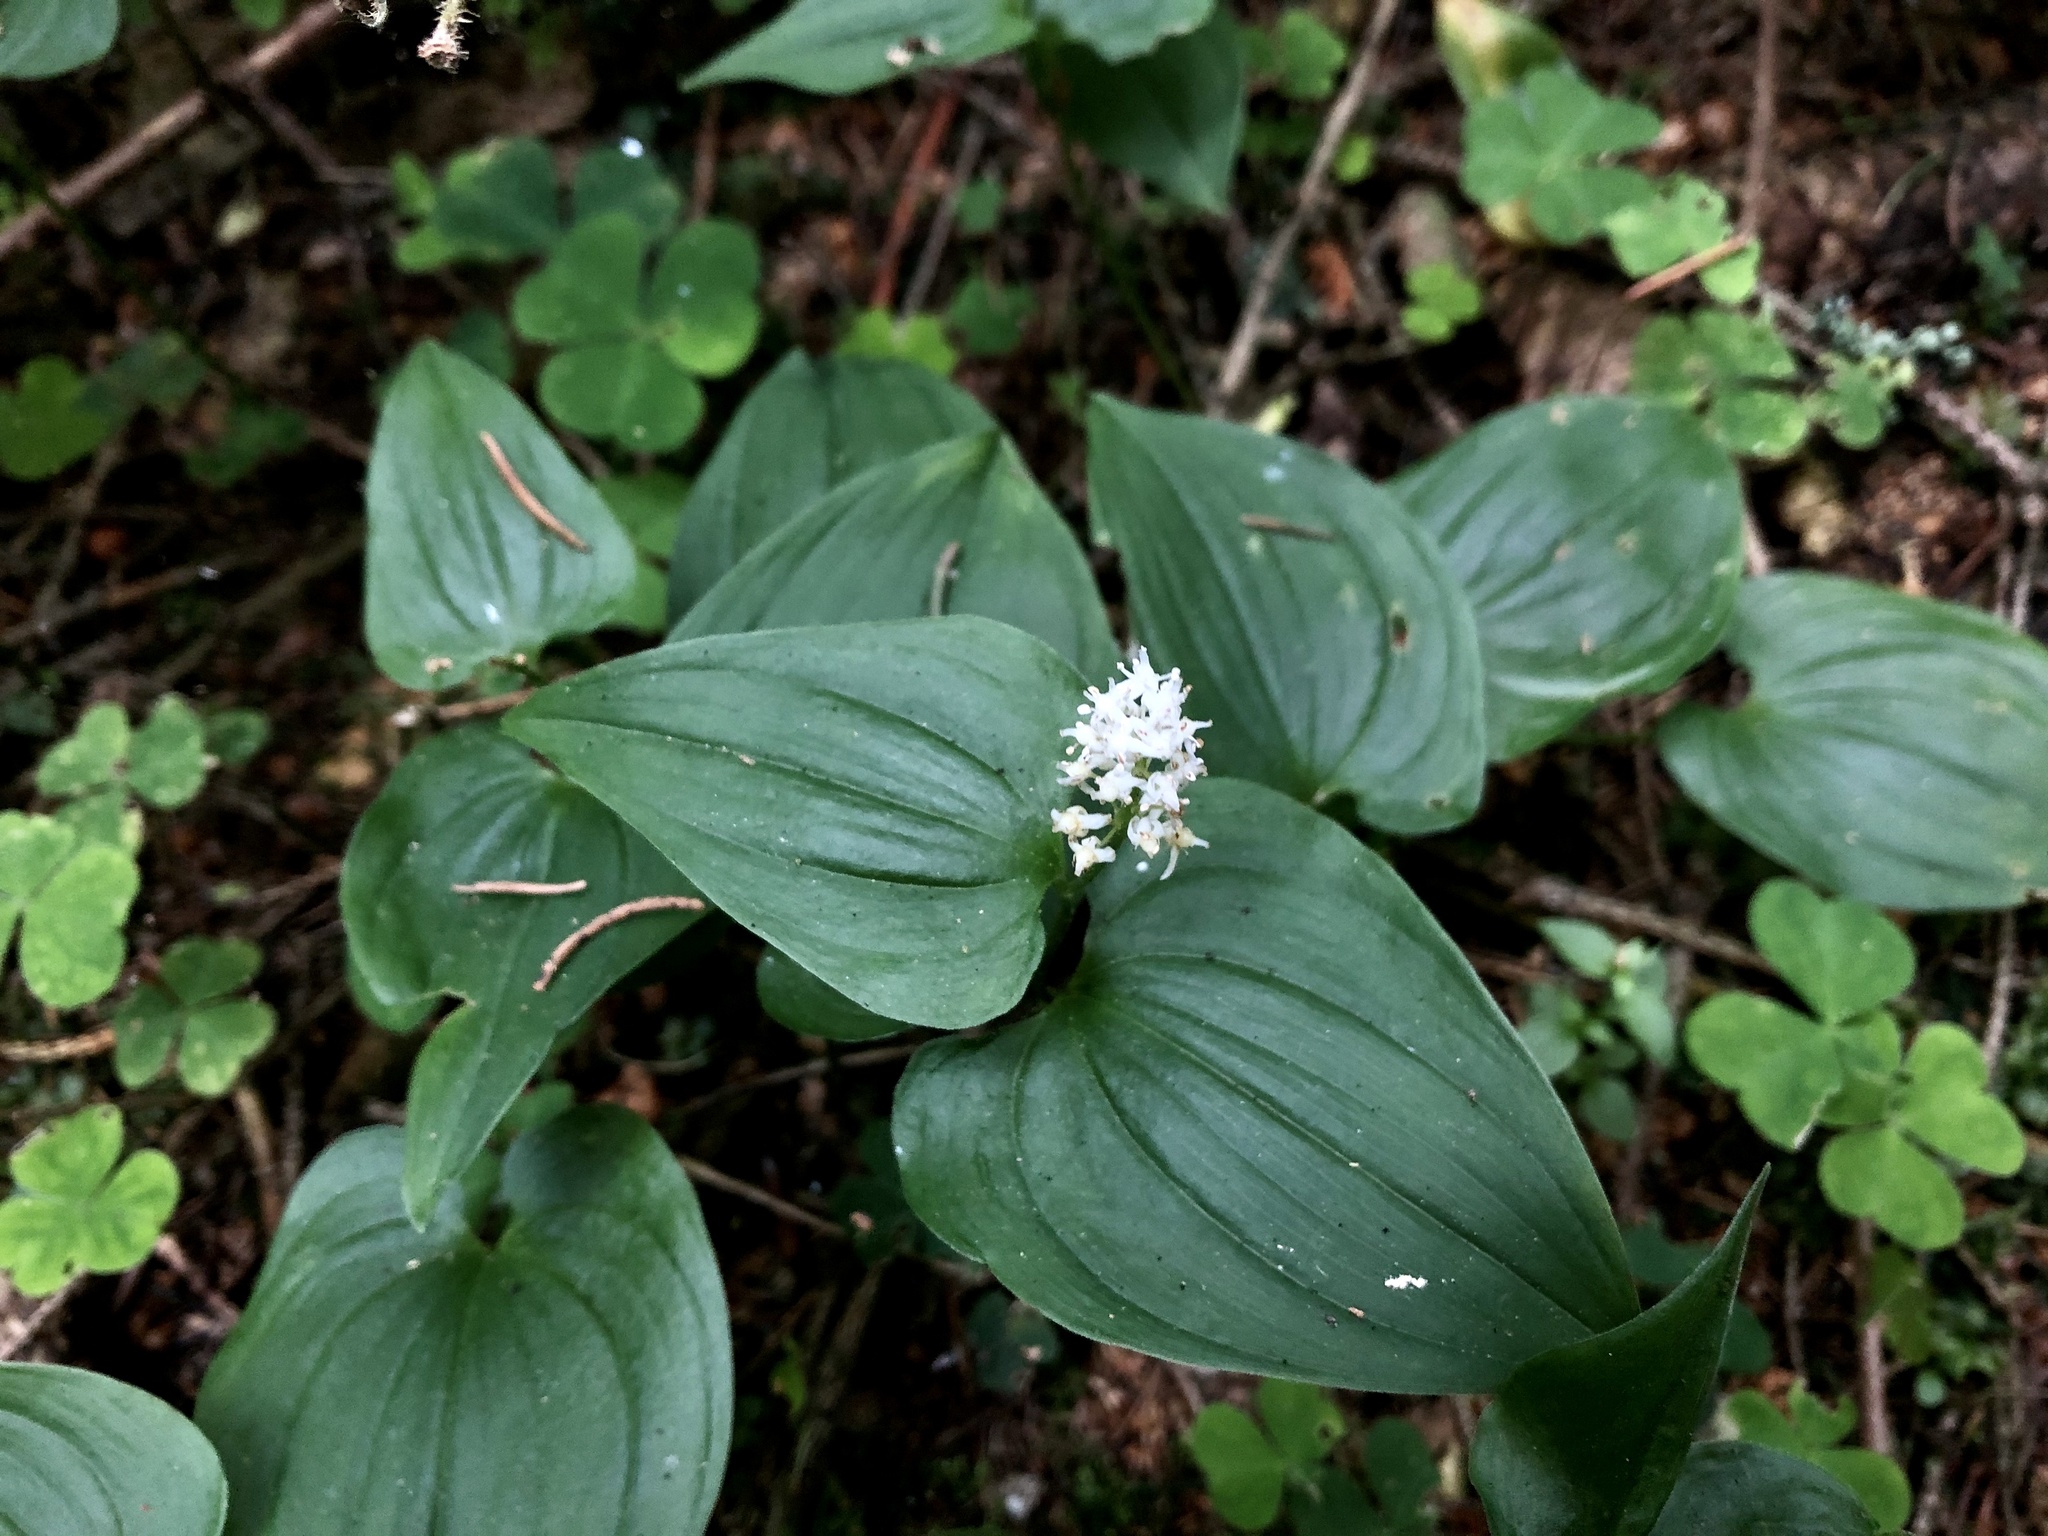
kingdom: Plantae
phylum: Tracheophyta
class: Liliopsida
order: Asparagales
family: Asparagaceae
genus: Maianthemum
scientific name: Maianthemum bifolium
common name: May lily
